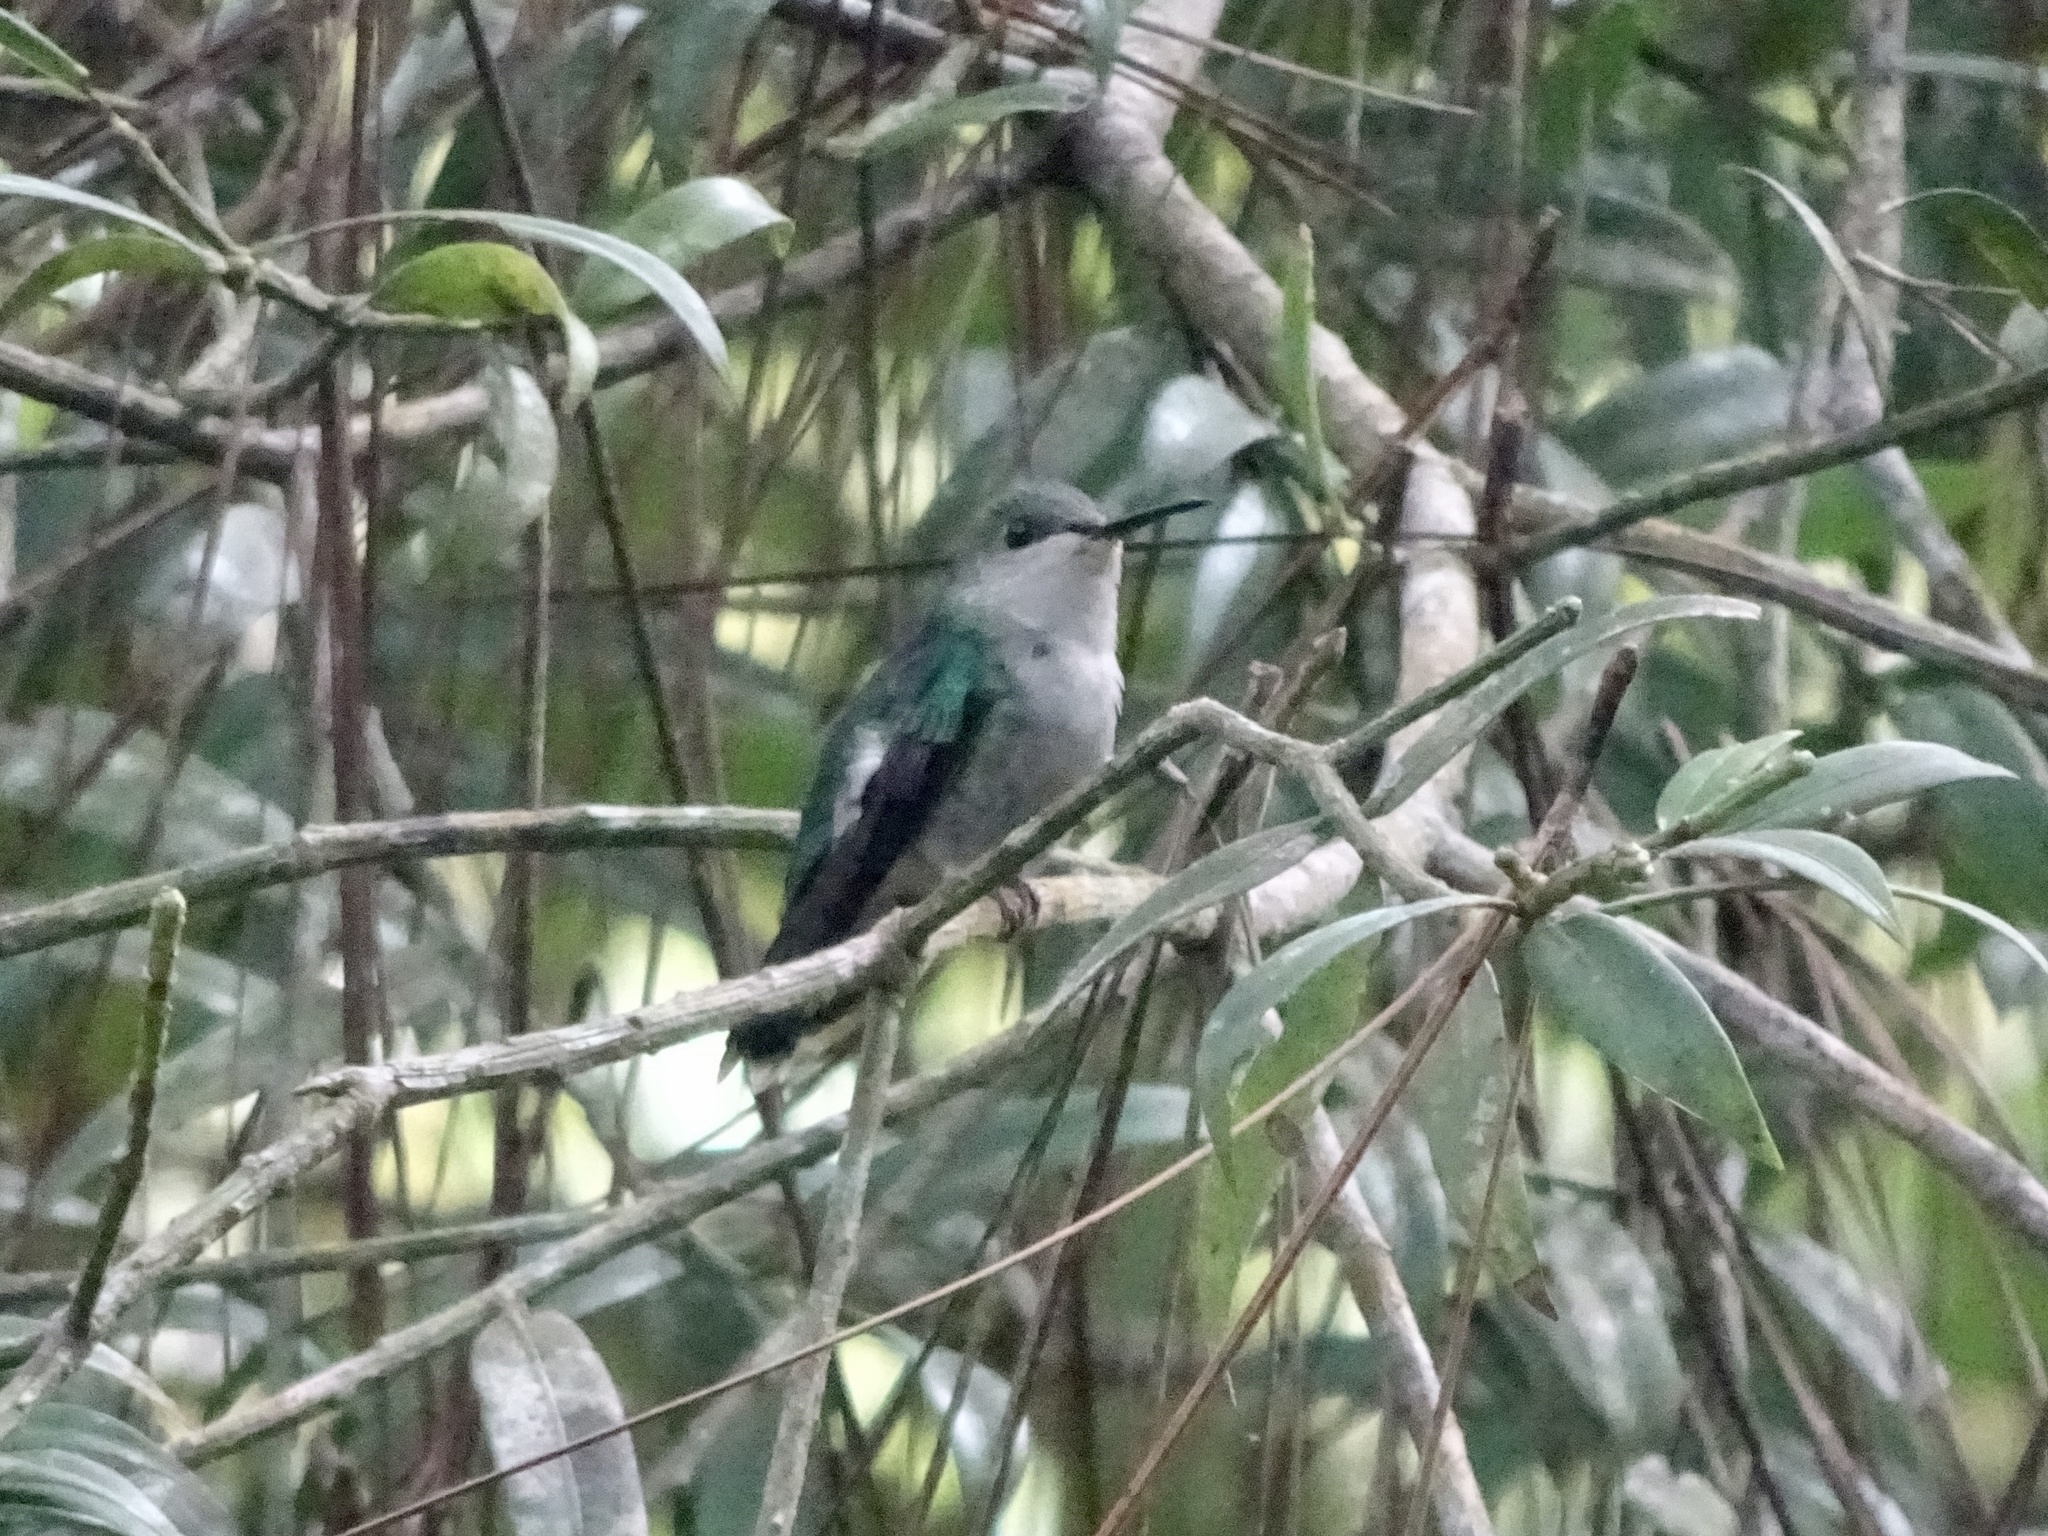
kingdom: Animalia
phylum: Chordata
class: Aves
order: Apodiformes
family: Trochilidae
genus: Thalurania
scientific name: Thalurania colombica
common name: Crowned woodnymph
